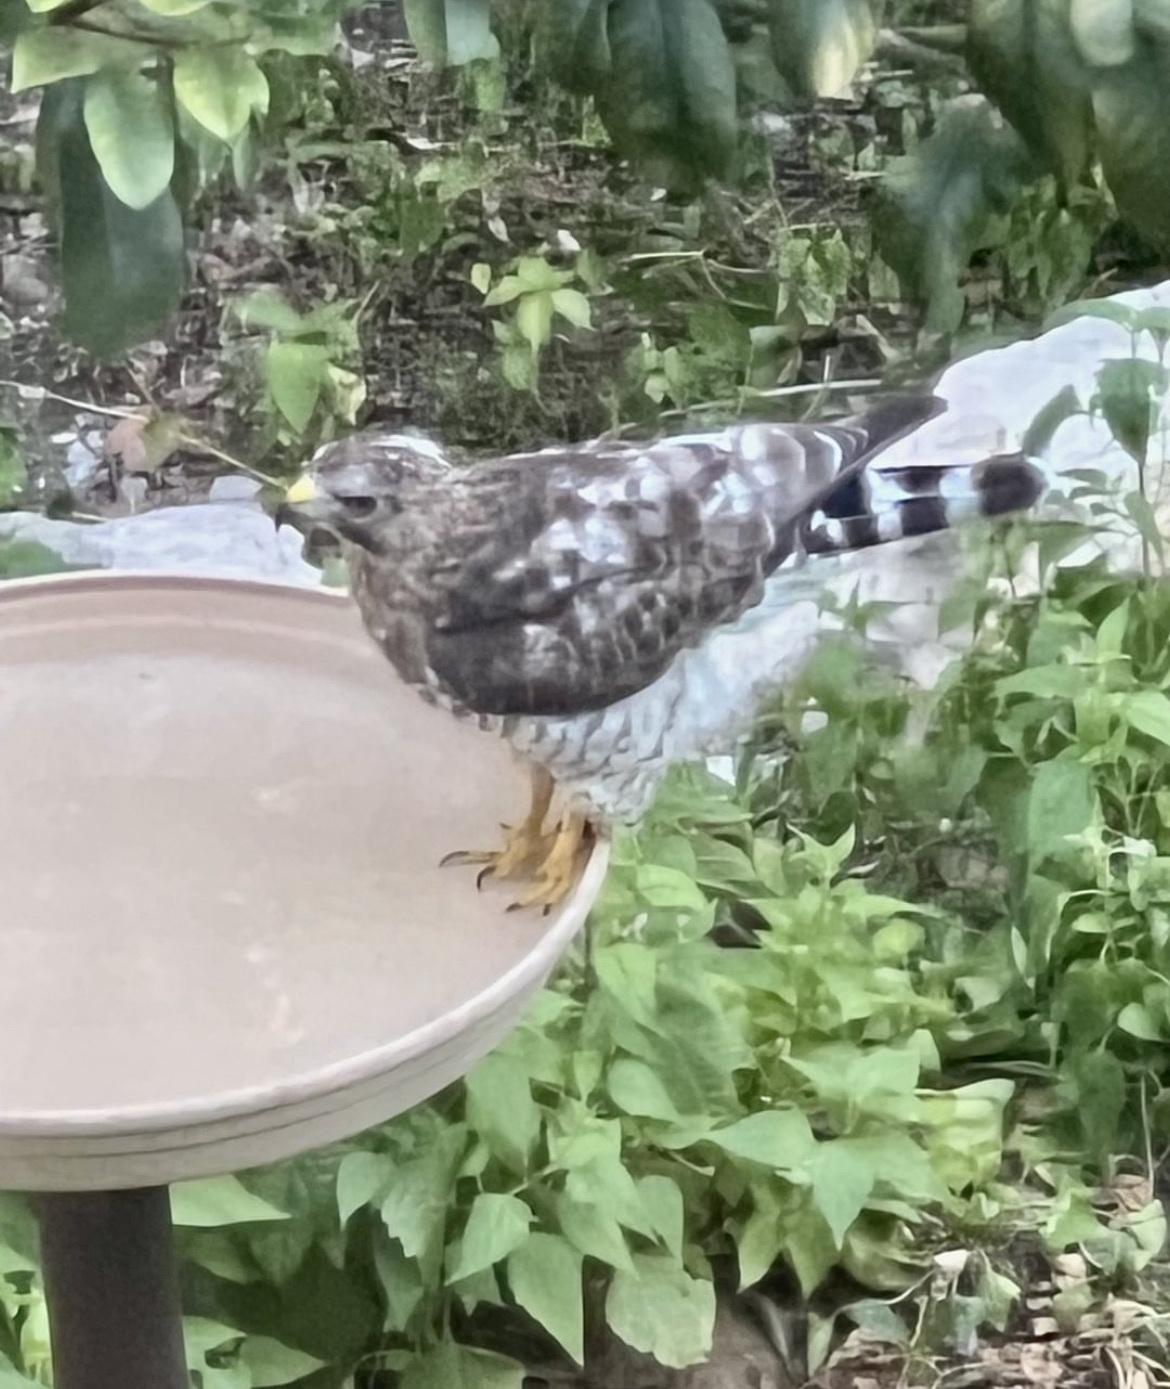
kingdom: Animalia
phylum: Chordata
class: Aves
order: Accipitriformes
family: Accipitridae
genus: Buteo
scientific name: Buteo platypterus
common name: Broad-winged hawk
